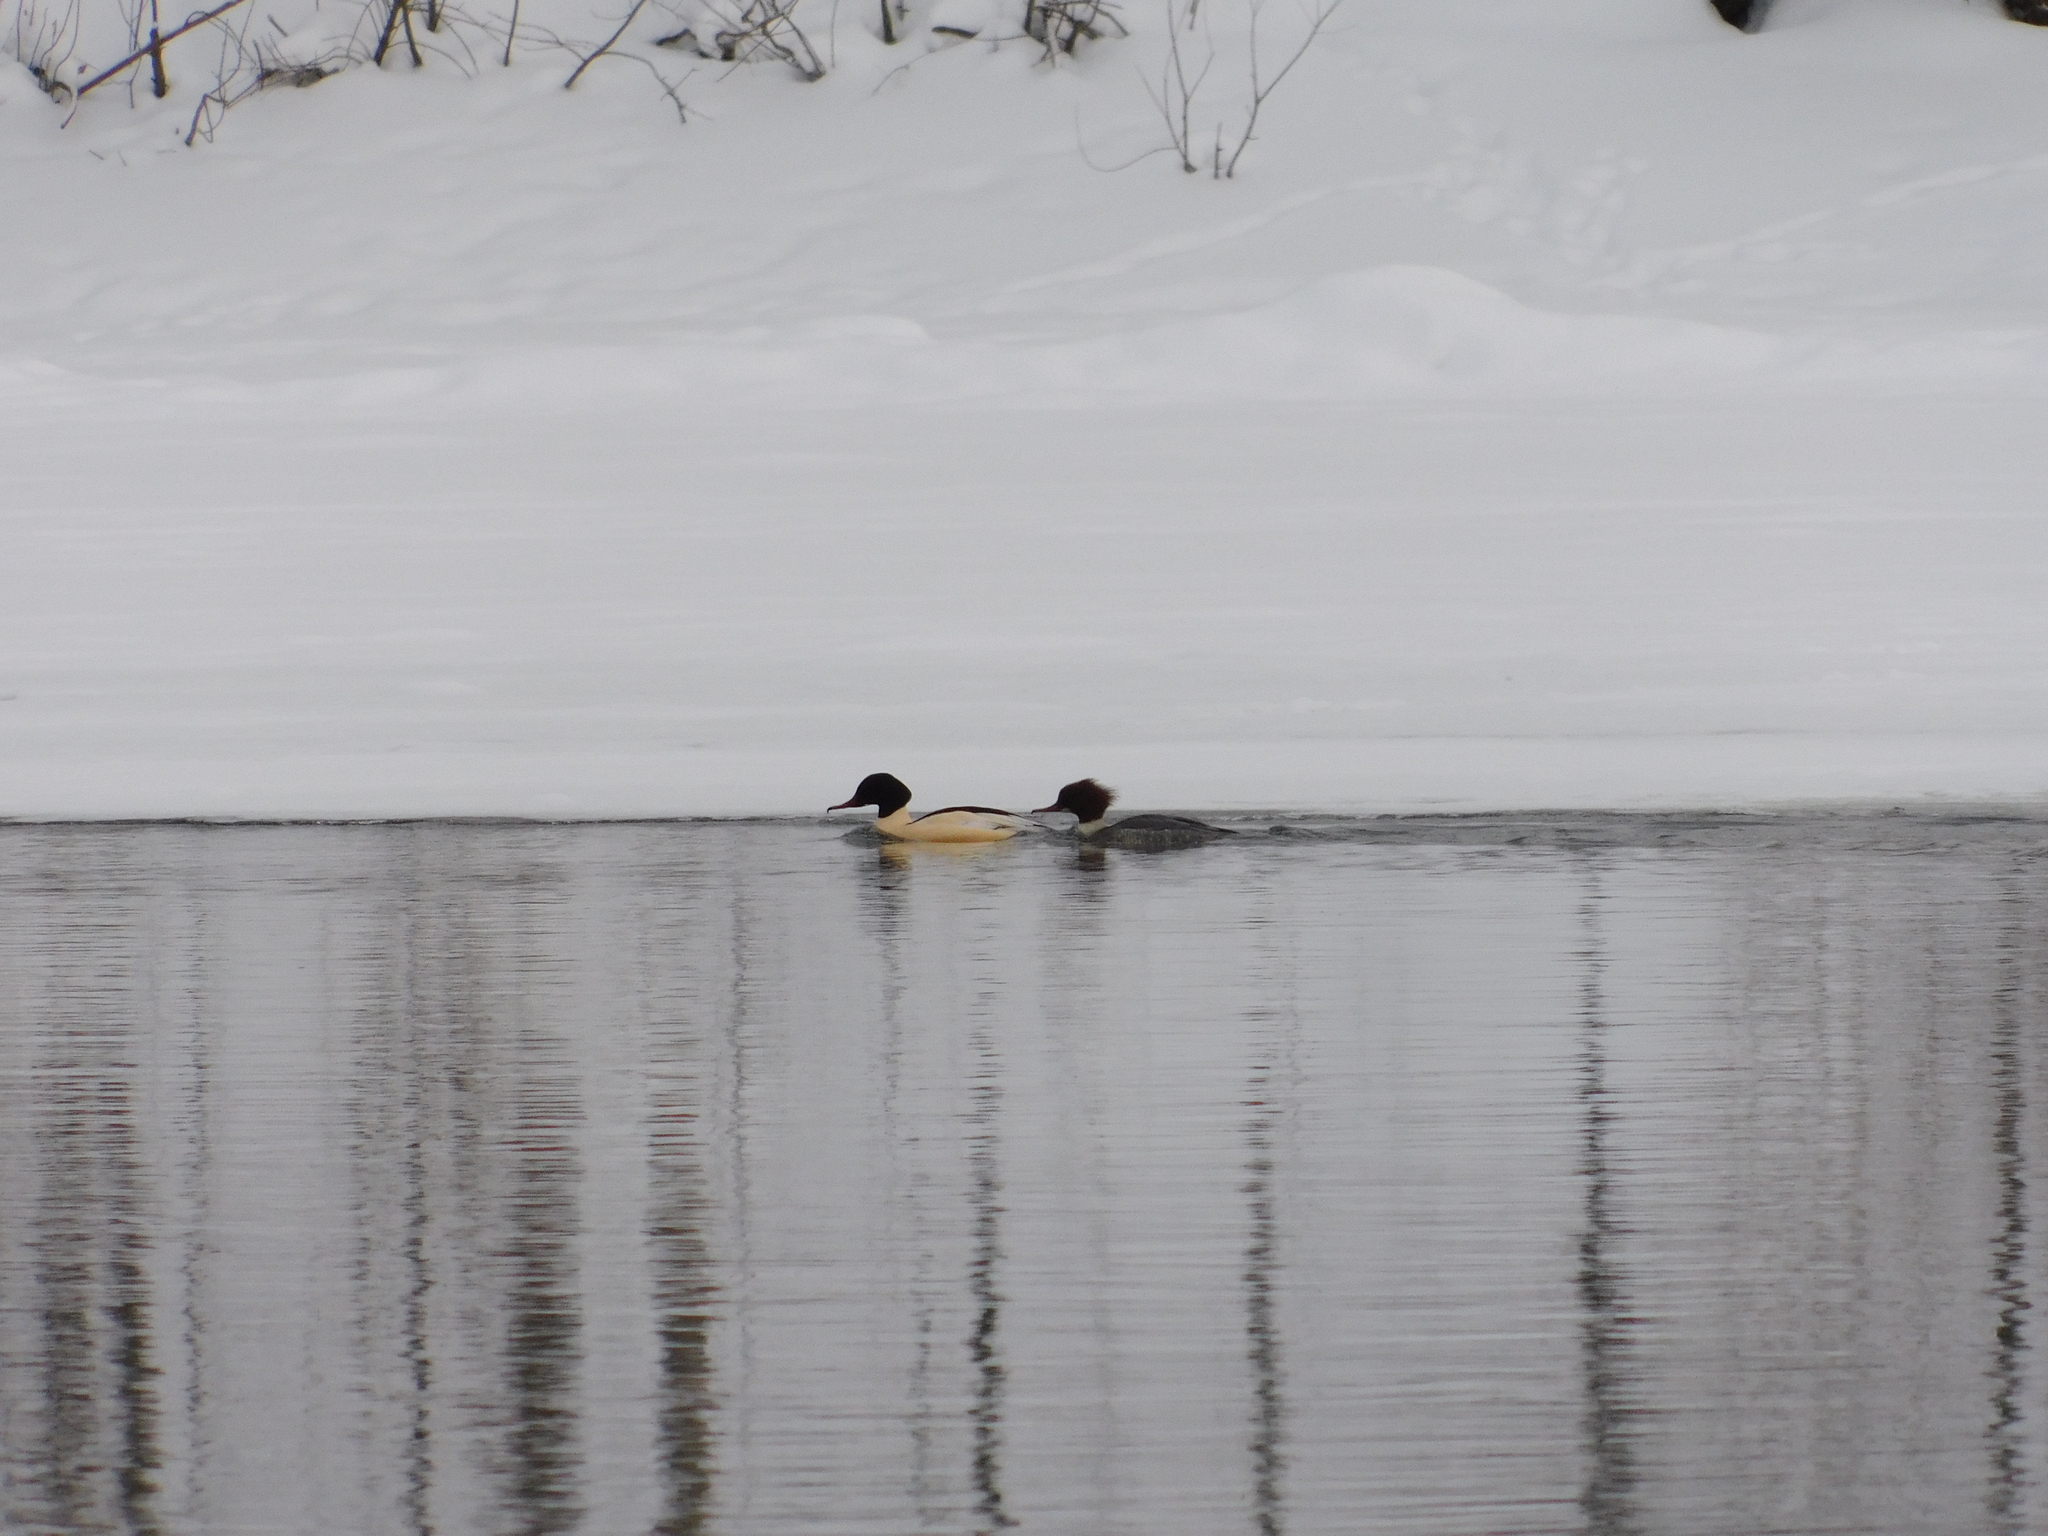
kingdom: Animalia
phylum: Chordata
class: Aves
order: Anseriformes
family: Anatidae
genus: Mergus
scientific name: Mergus merganser
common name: Common merganser
